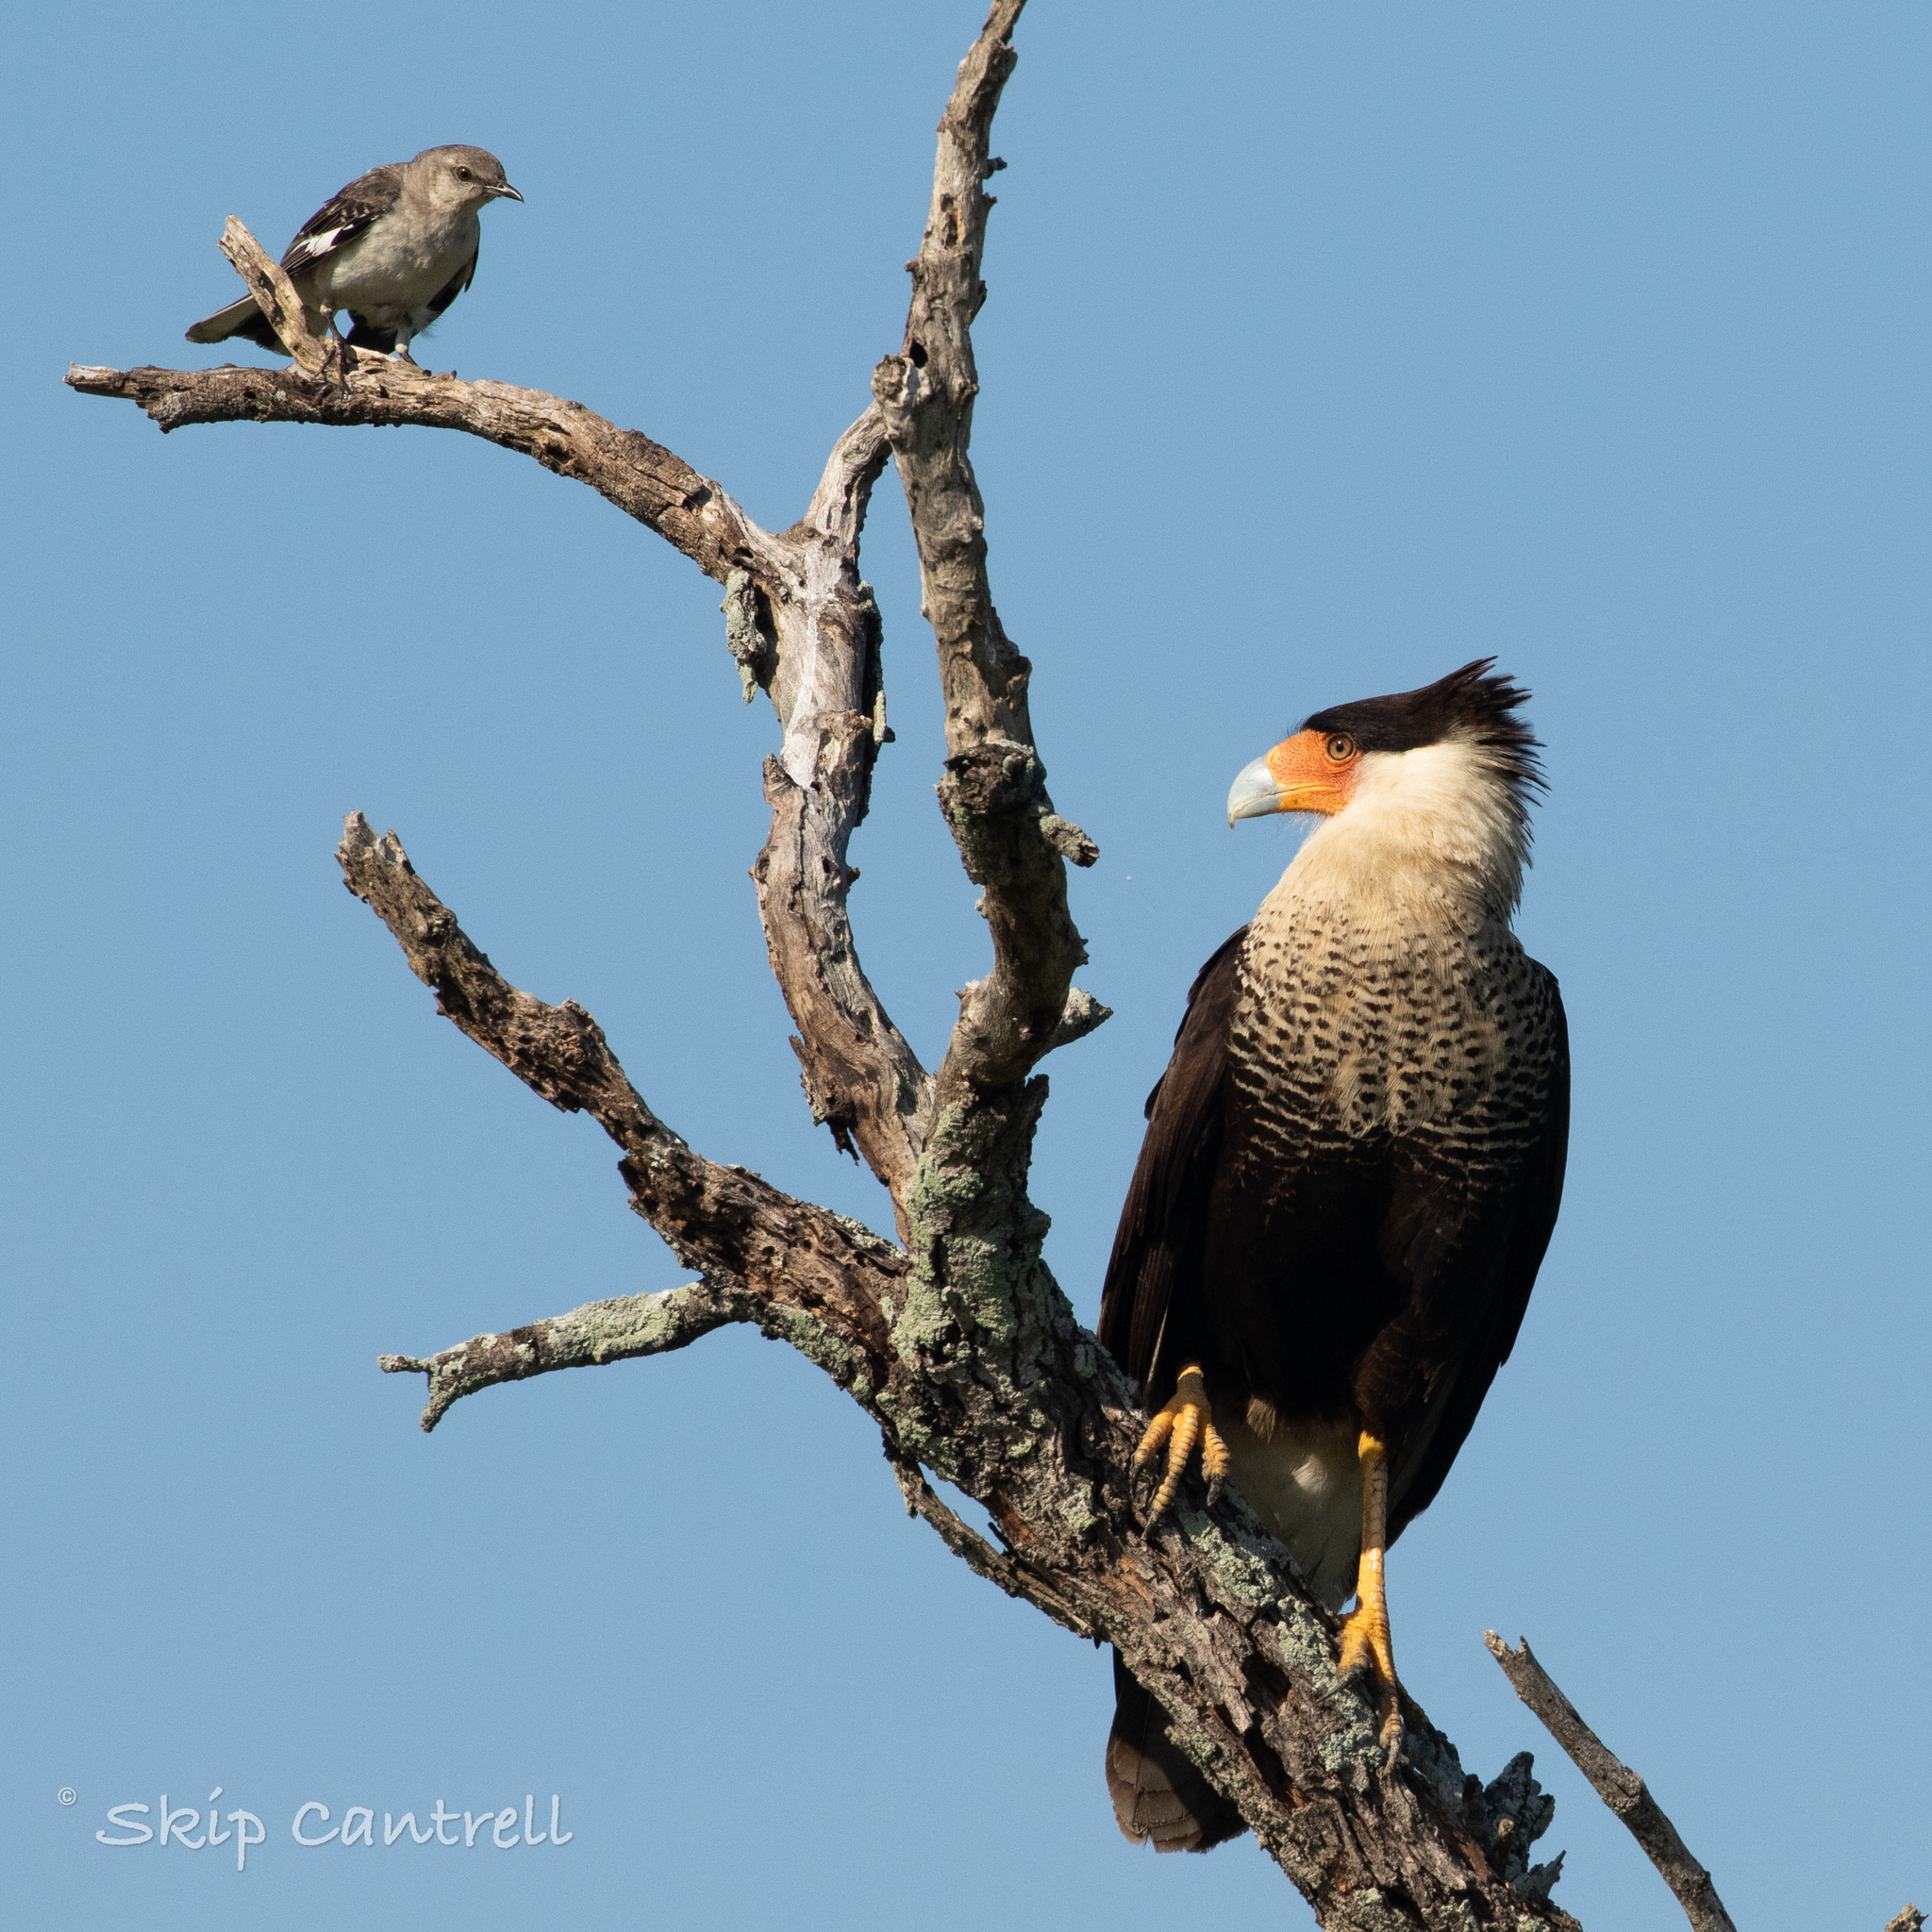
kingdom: Animalia
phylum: Chordata
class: Aves
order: Falconiformes
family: Falconidae
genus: Caracara
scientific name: Caracara plancus
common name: Southern caracara
